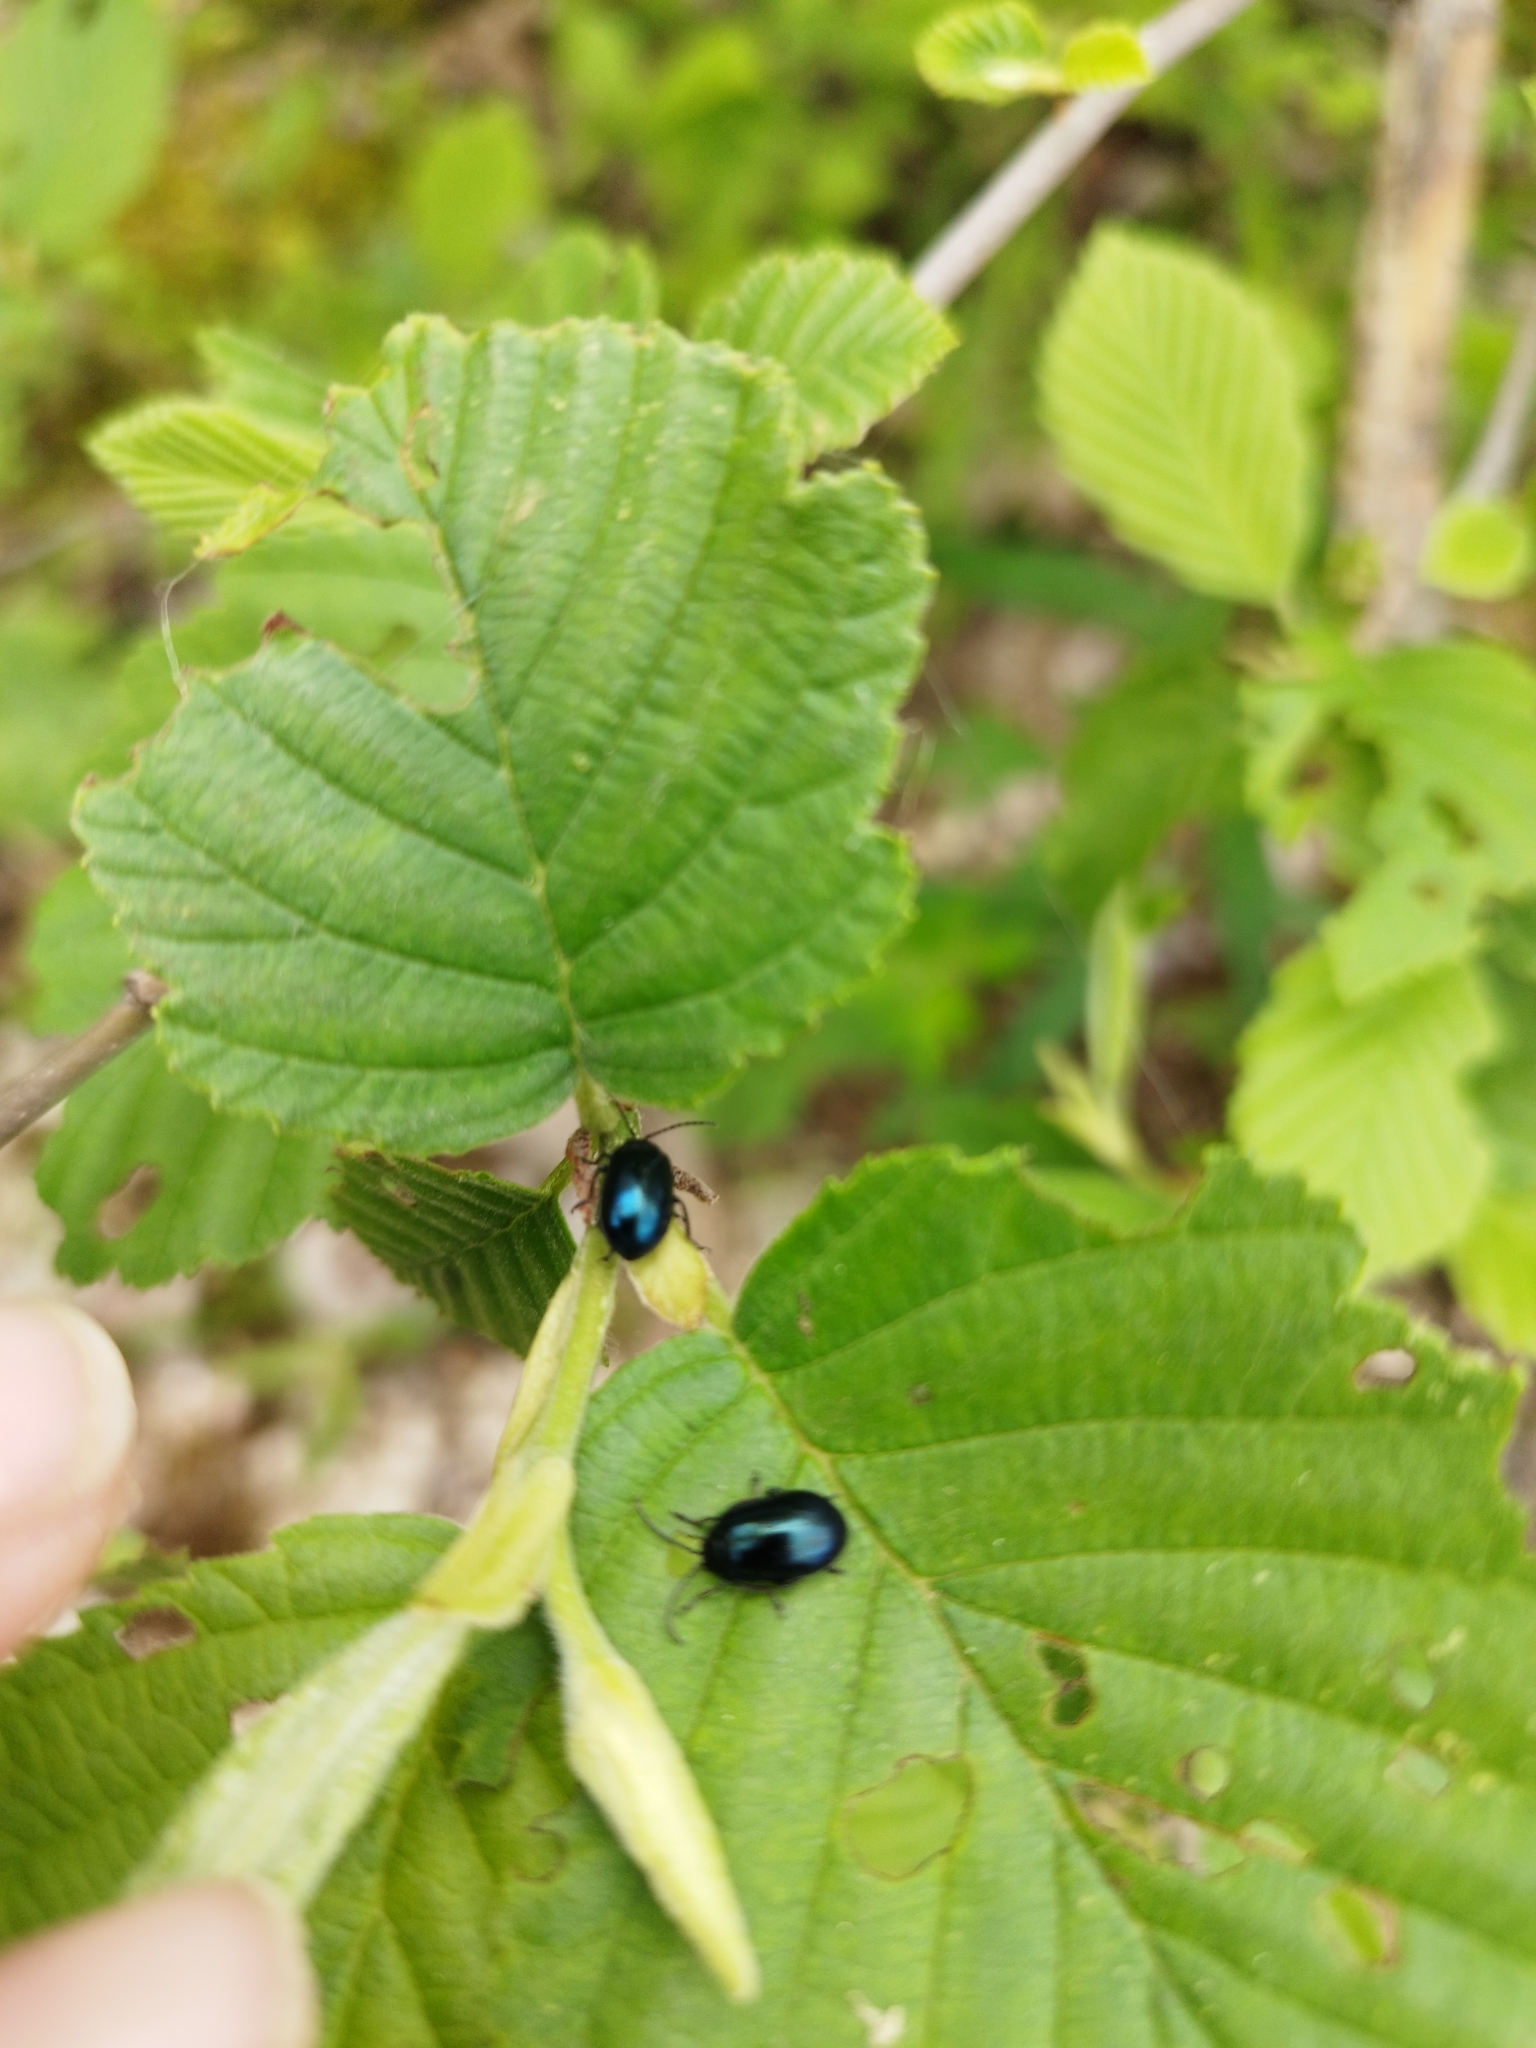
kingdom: Animalia
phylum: Arthropoda
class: Insecta
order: Coleoptera
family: Chrysomelidae
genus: Agelastica
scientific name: Agelastica alni
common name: Alder leaf beetle
